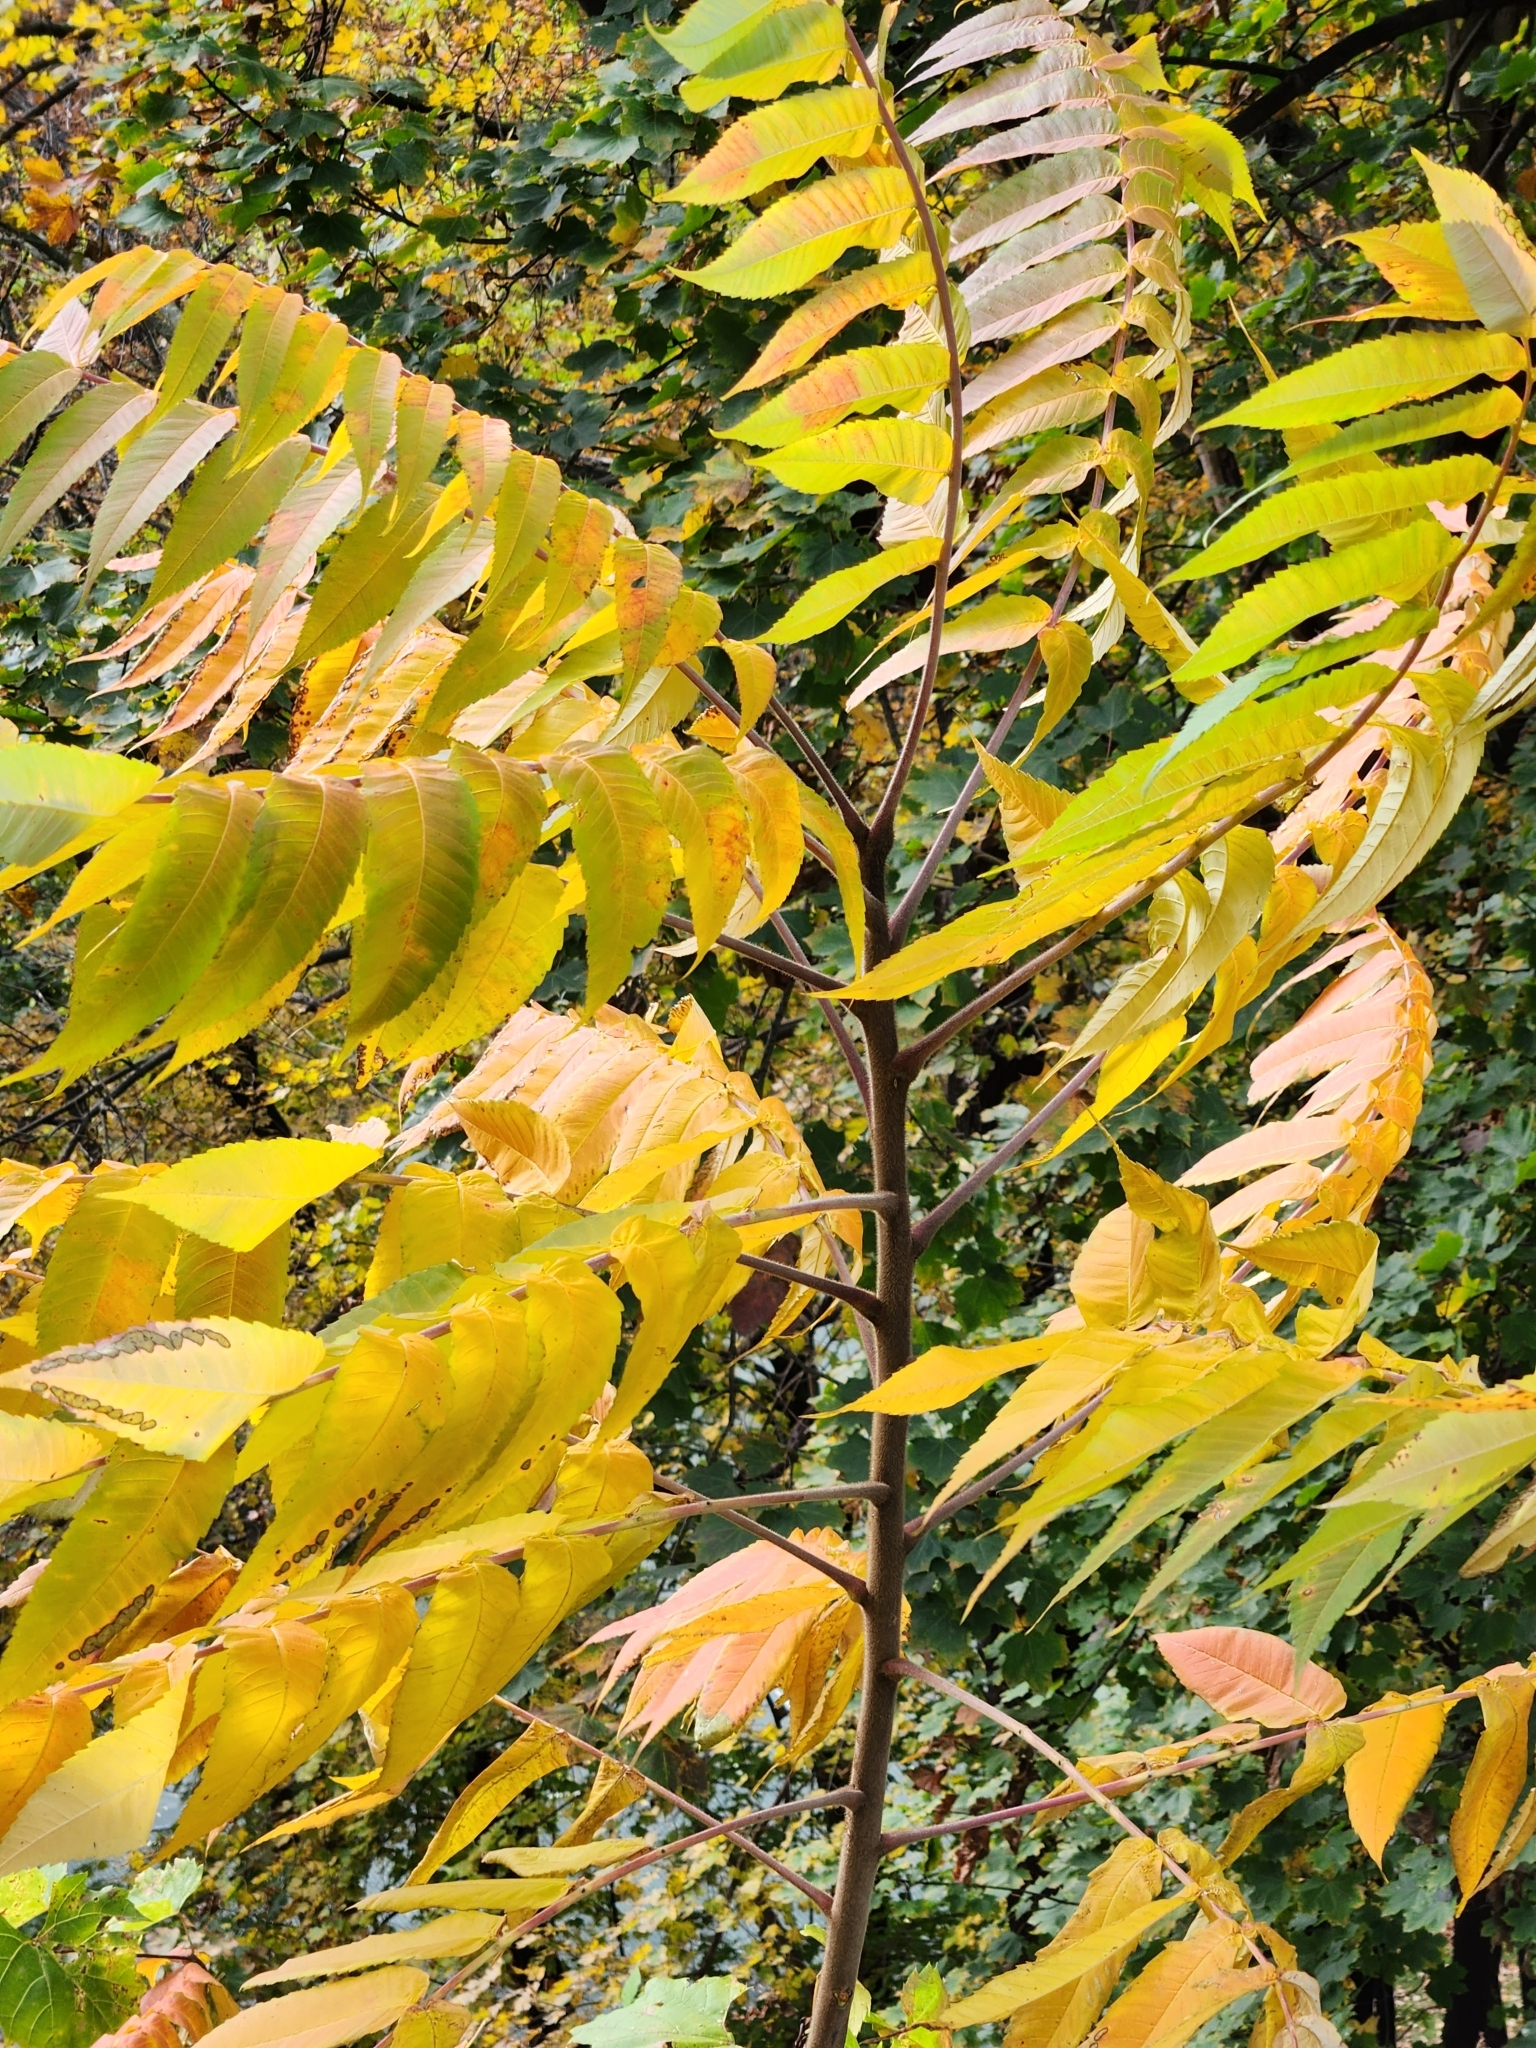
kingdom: Plantae
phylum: Tracheophyta
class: Magnoliopsida
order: Sapindales
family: Anacardiaceae
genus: Rhus
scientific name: Rhus typhina
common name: Staghorn sumac
